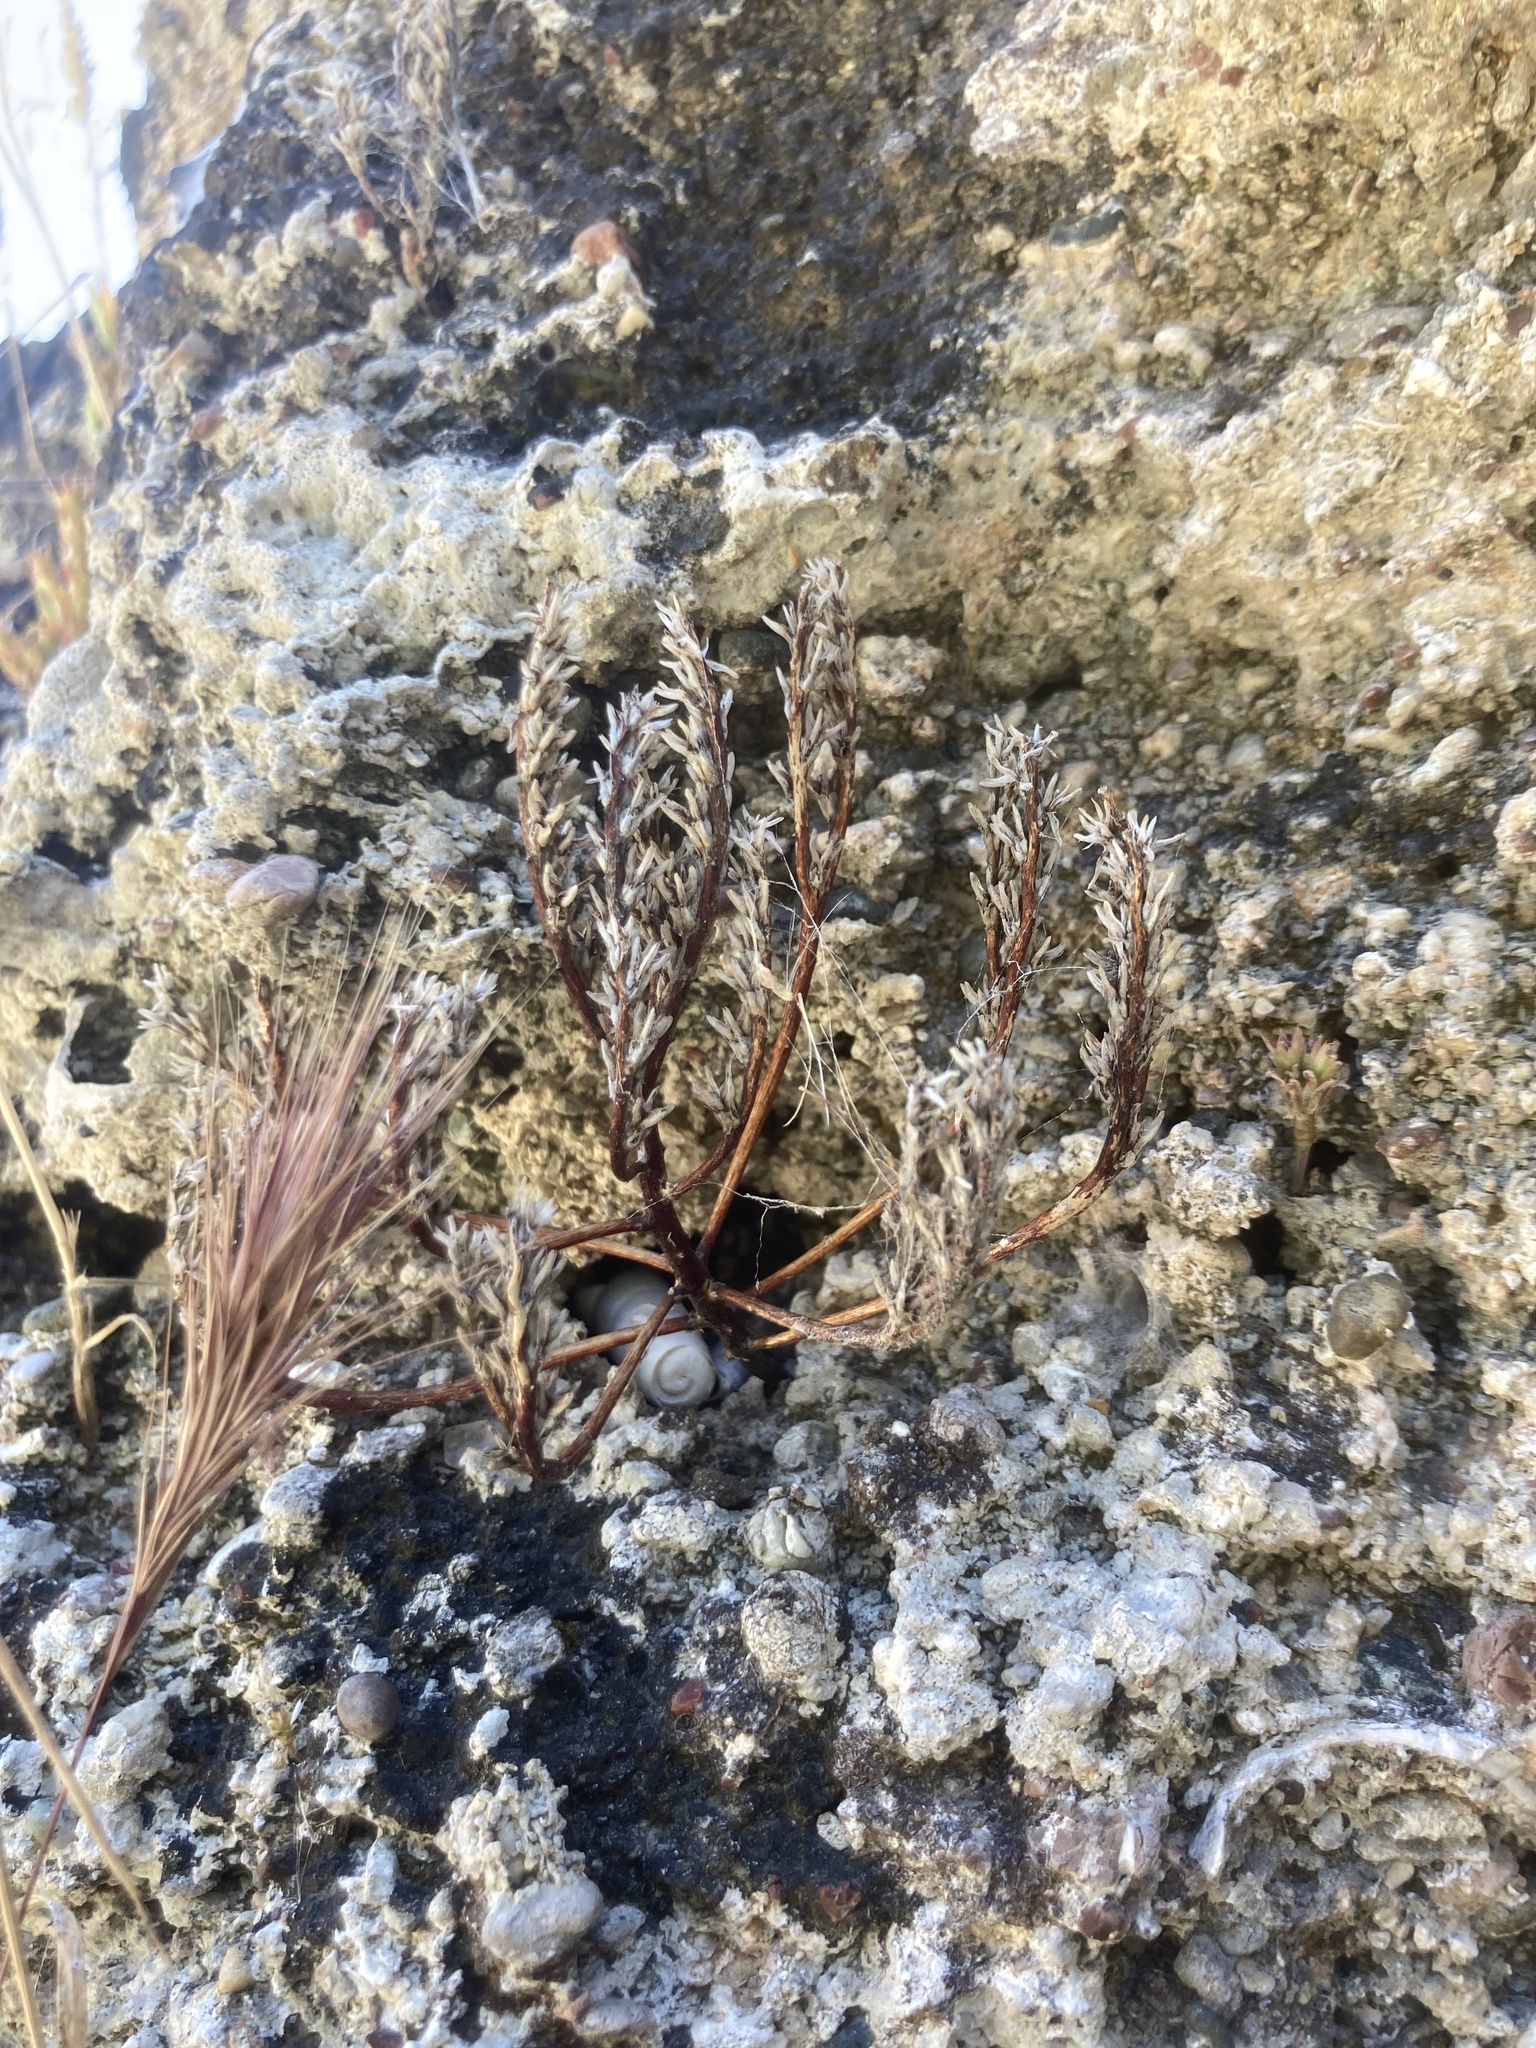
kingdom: Plantae
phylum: Tracheophyta
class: Magnoliopsida
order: Saxifragales
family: Crassulaceae
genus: Sedum
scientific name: Sedum litoreum
